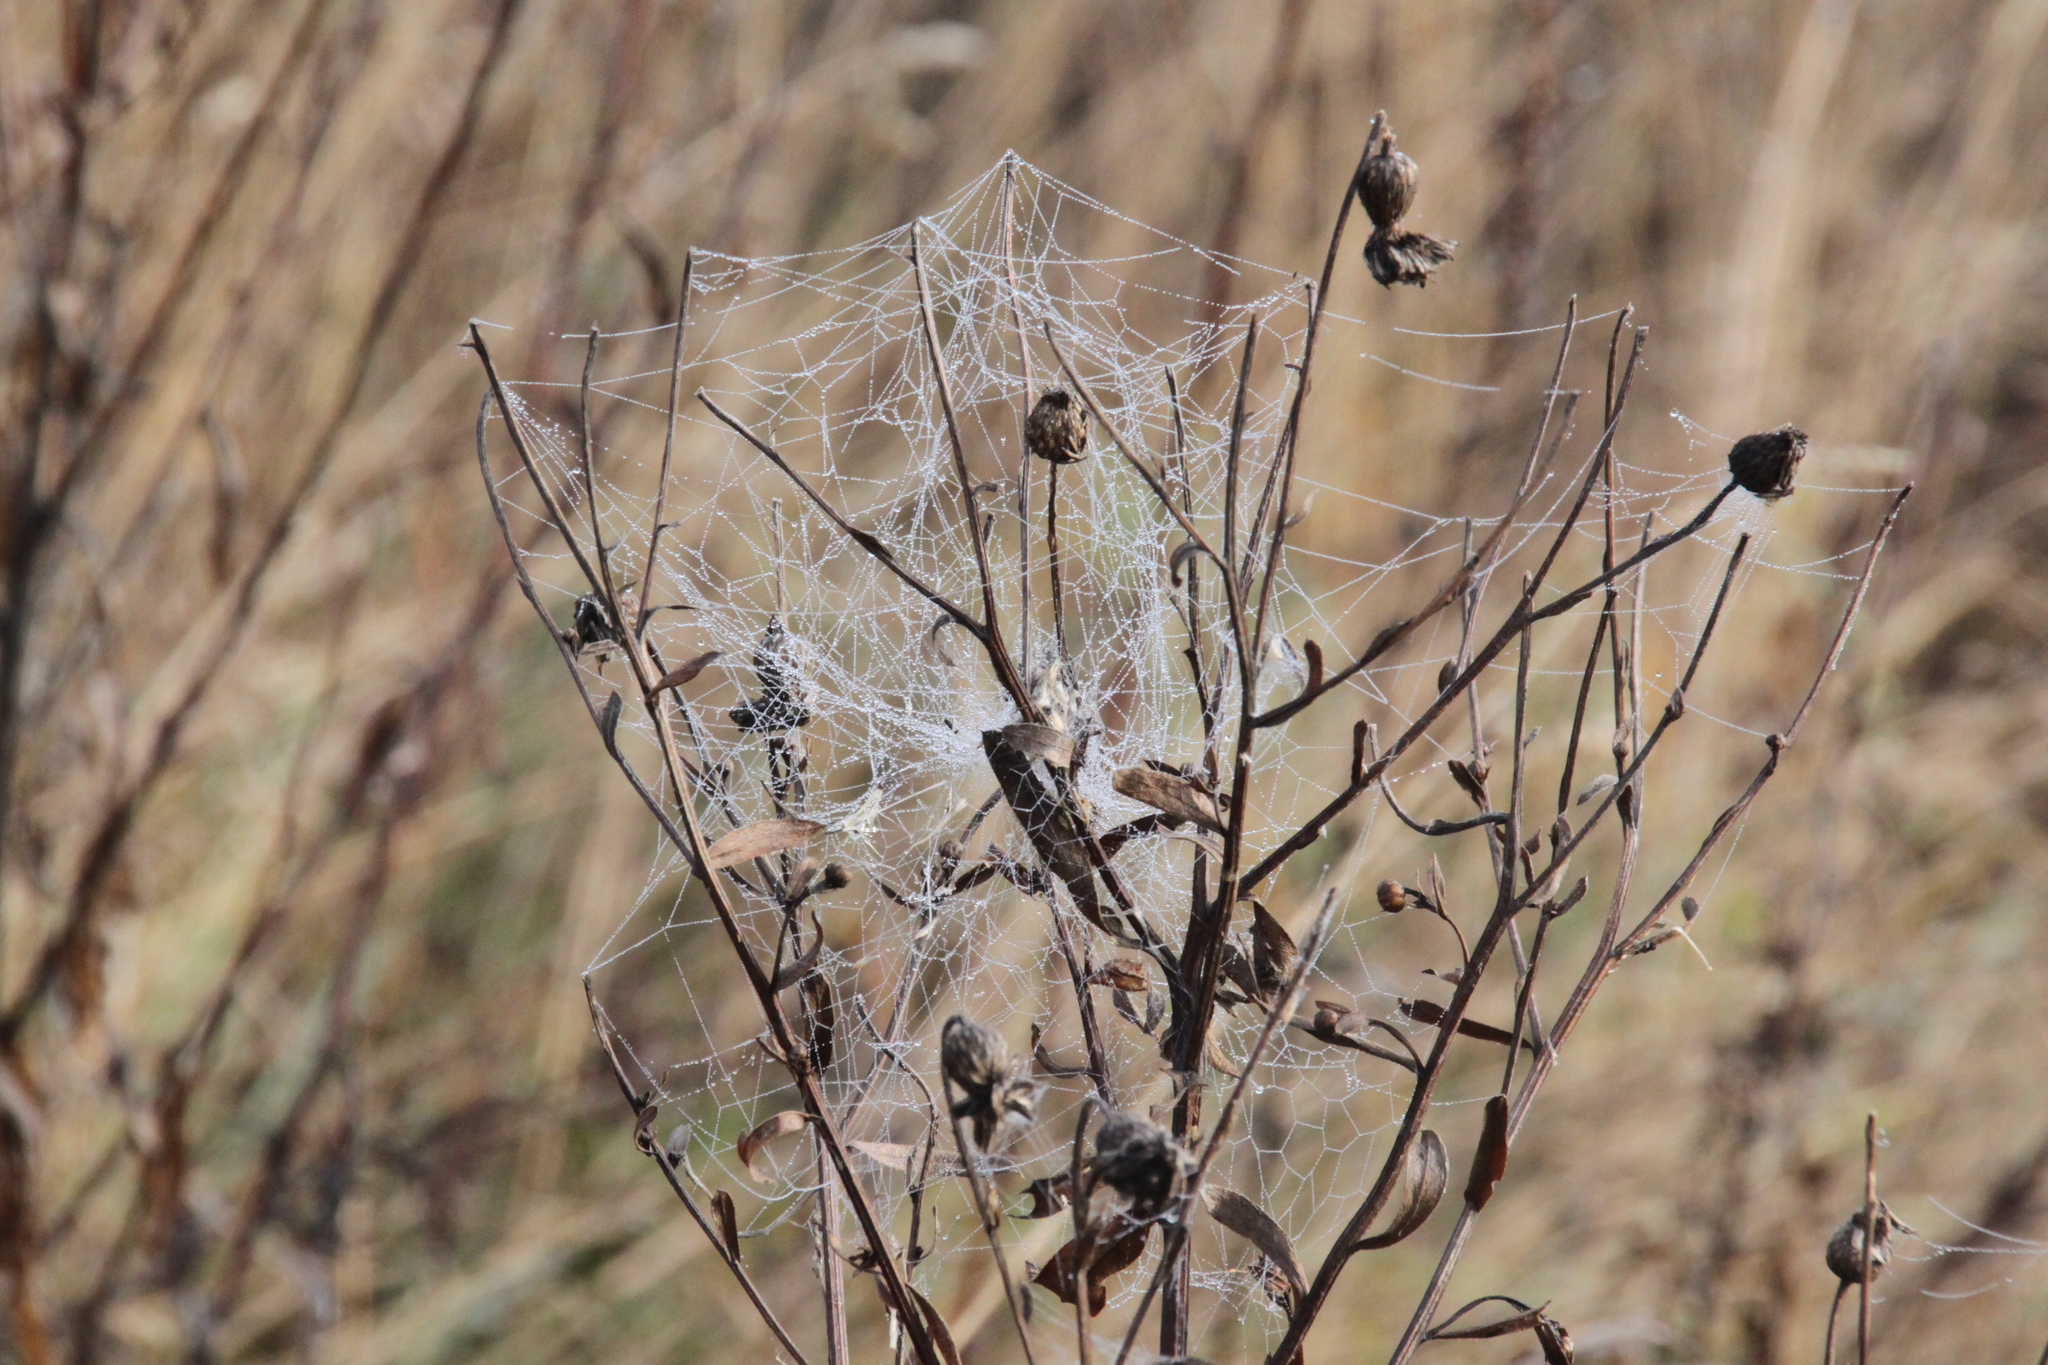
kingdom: Plantae
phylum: Tracheophyta
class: Magnoliopsida
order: Asterales
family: Asteraceae
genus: Cirsium
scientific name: Cirsium arvense
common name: Creeping thistle
